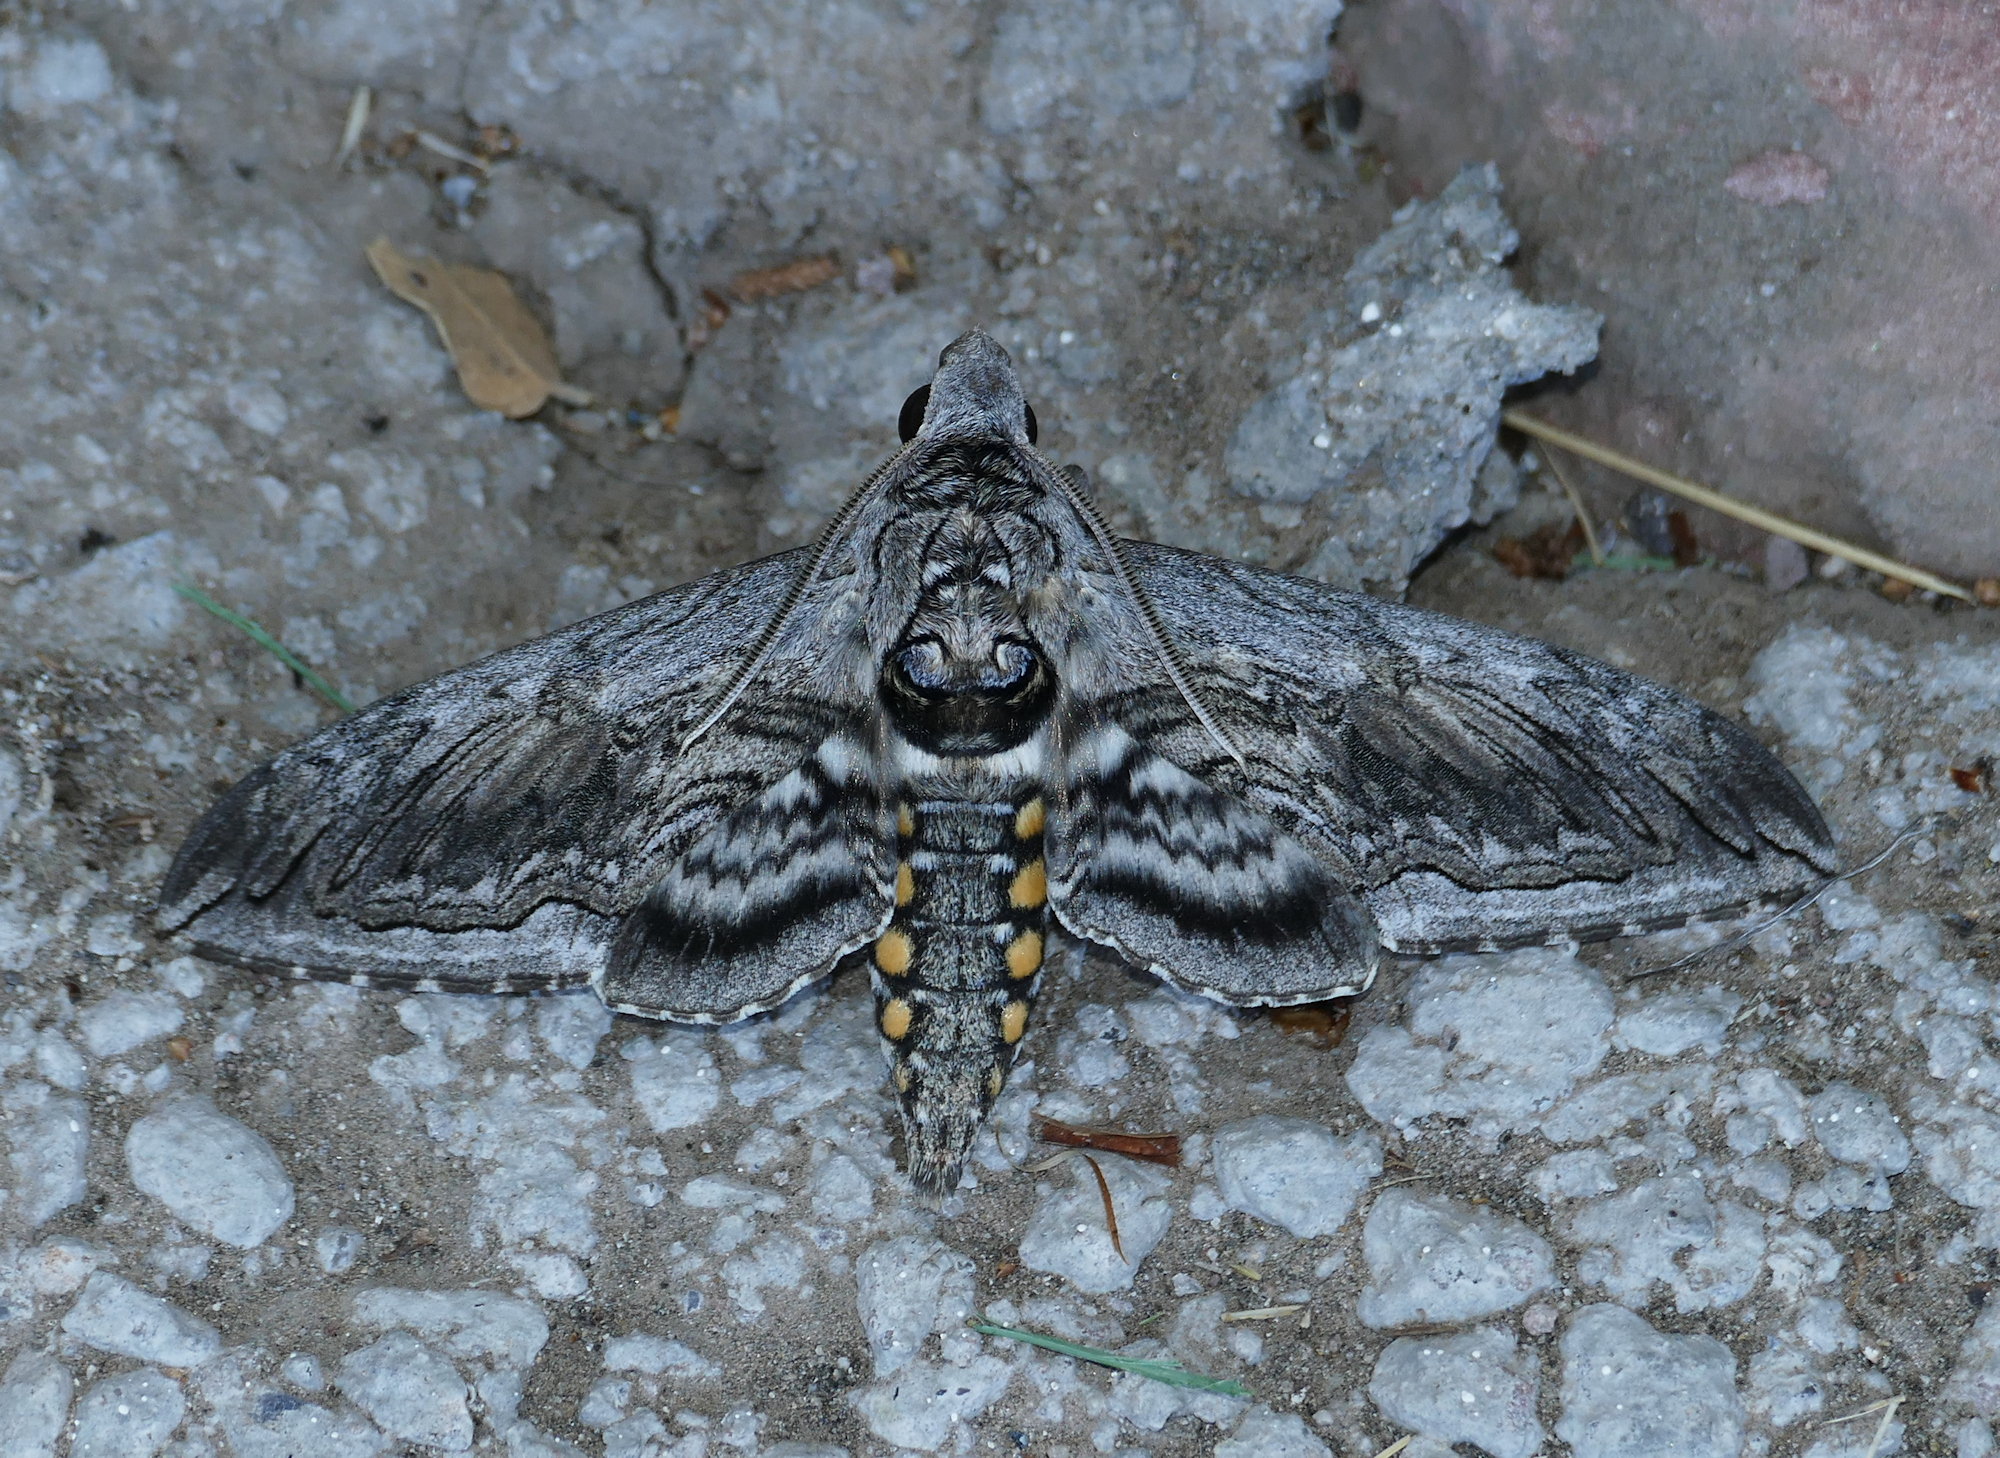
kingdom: Animalia
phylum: Arthropoda
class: Insecta
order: Lepidoptera
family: Sphingidae
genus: Manduca
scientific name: Manduca quinquemaculatus
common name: Five-spotted hawk-moth
